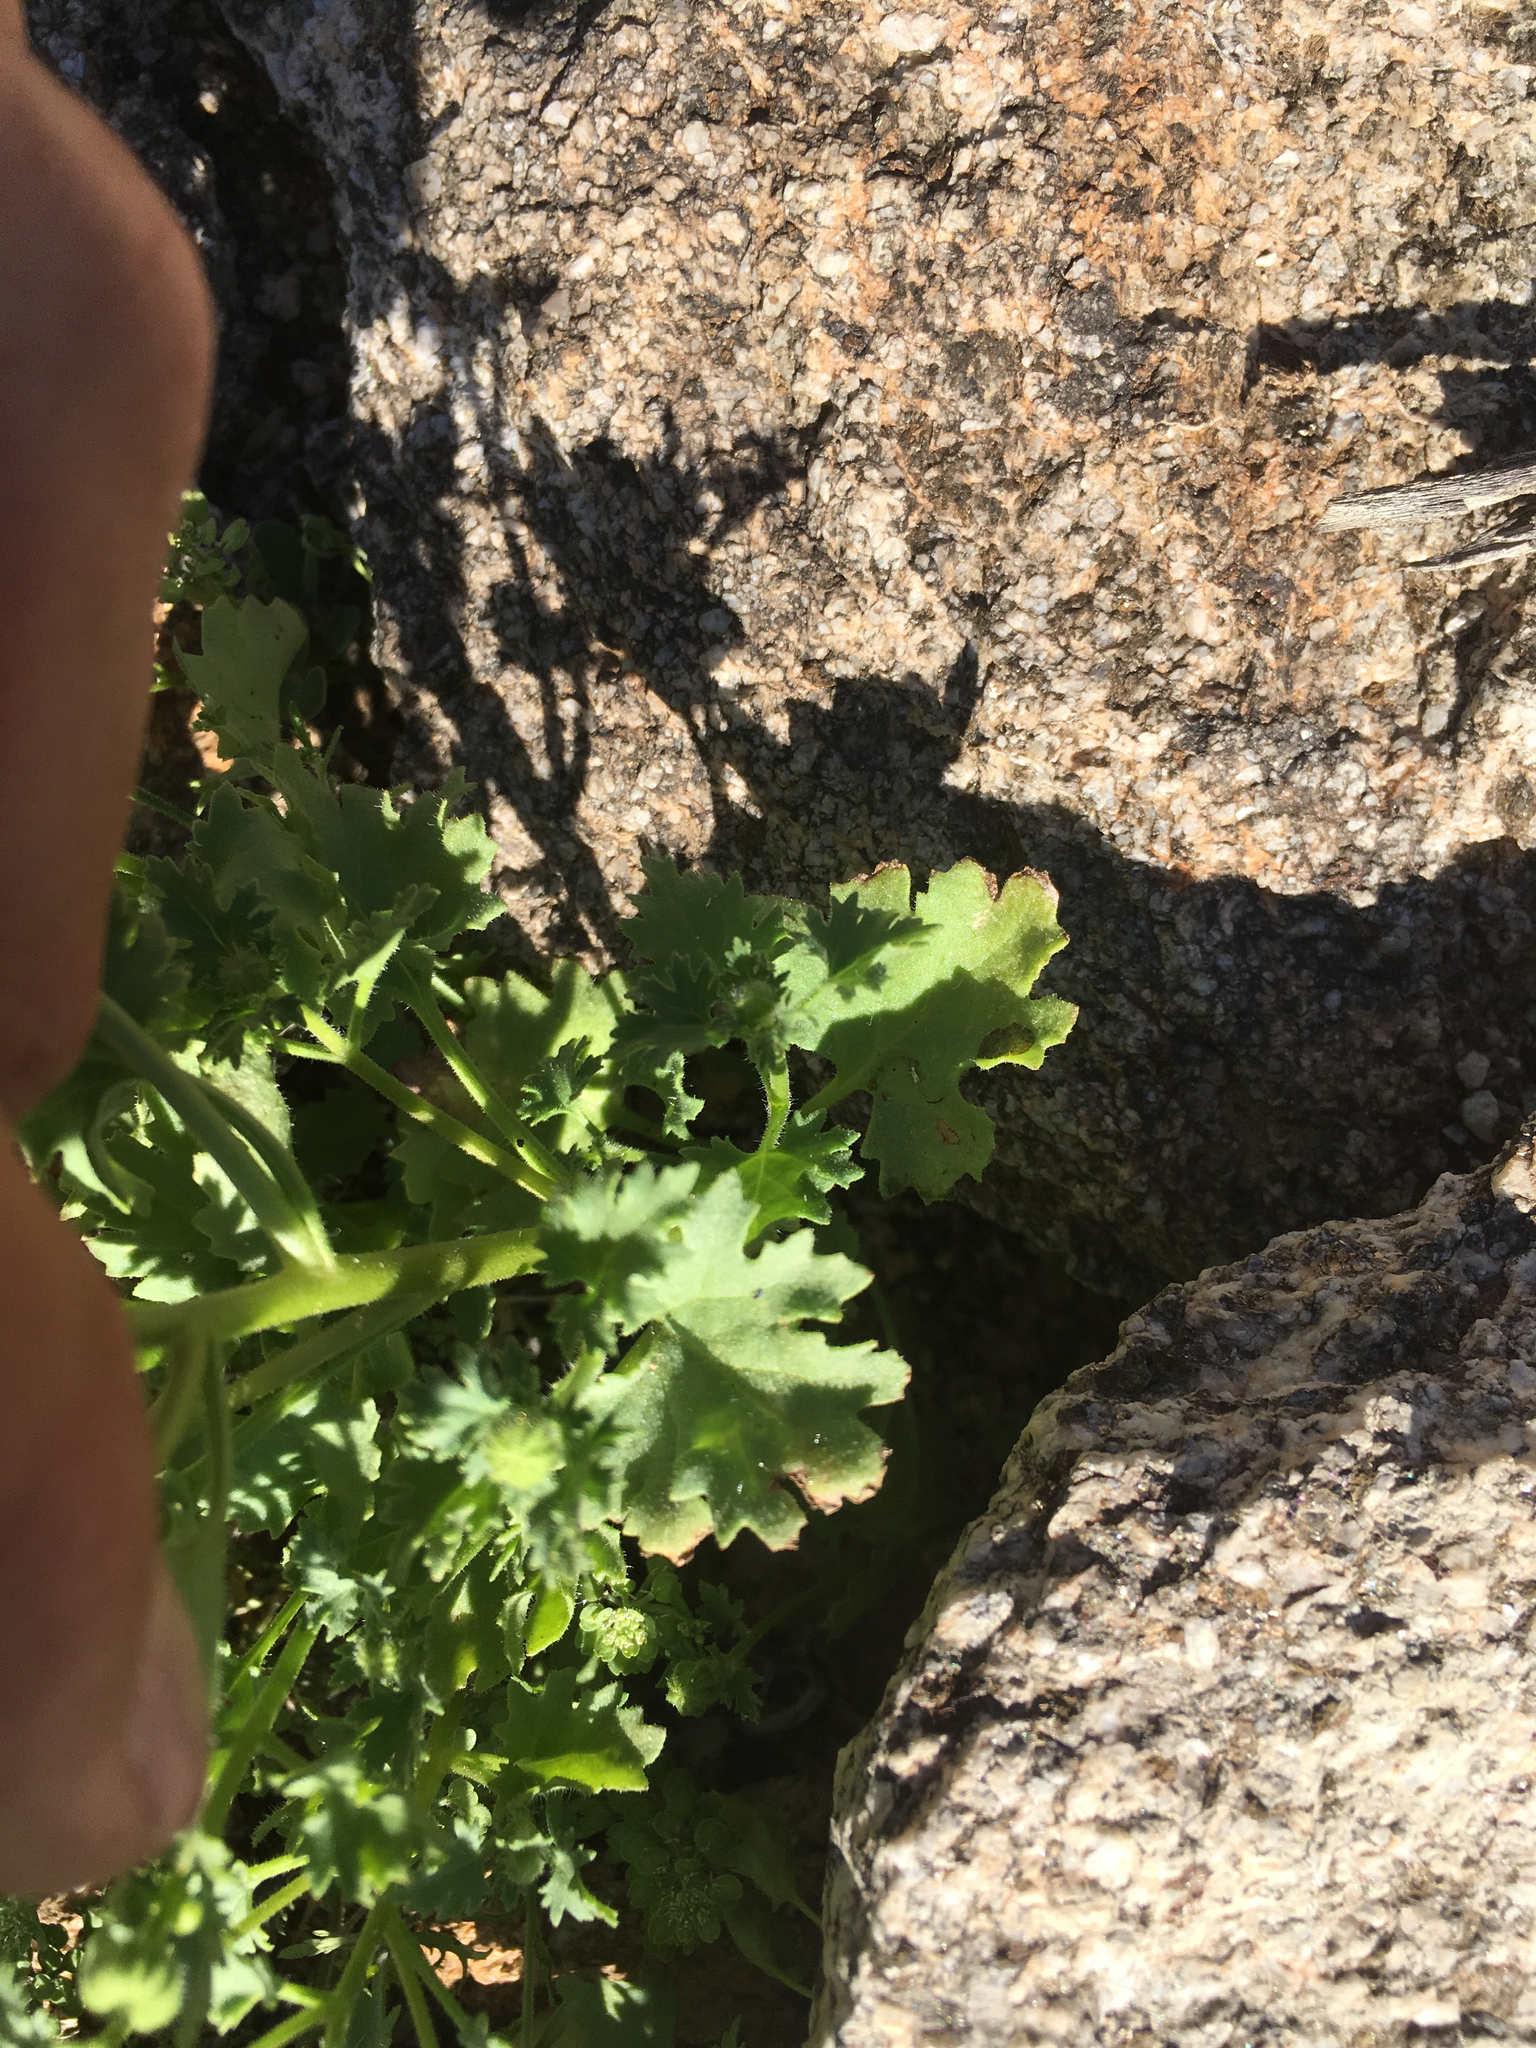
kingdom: Plantae
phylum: Tracheophyta
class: Magnoliopsida
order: Asterales
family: Asteraceae
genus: Laphamia
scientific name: Laphamia emoryi
